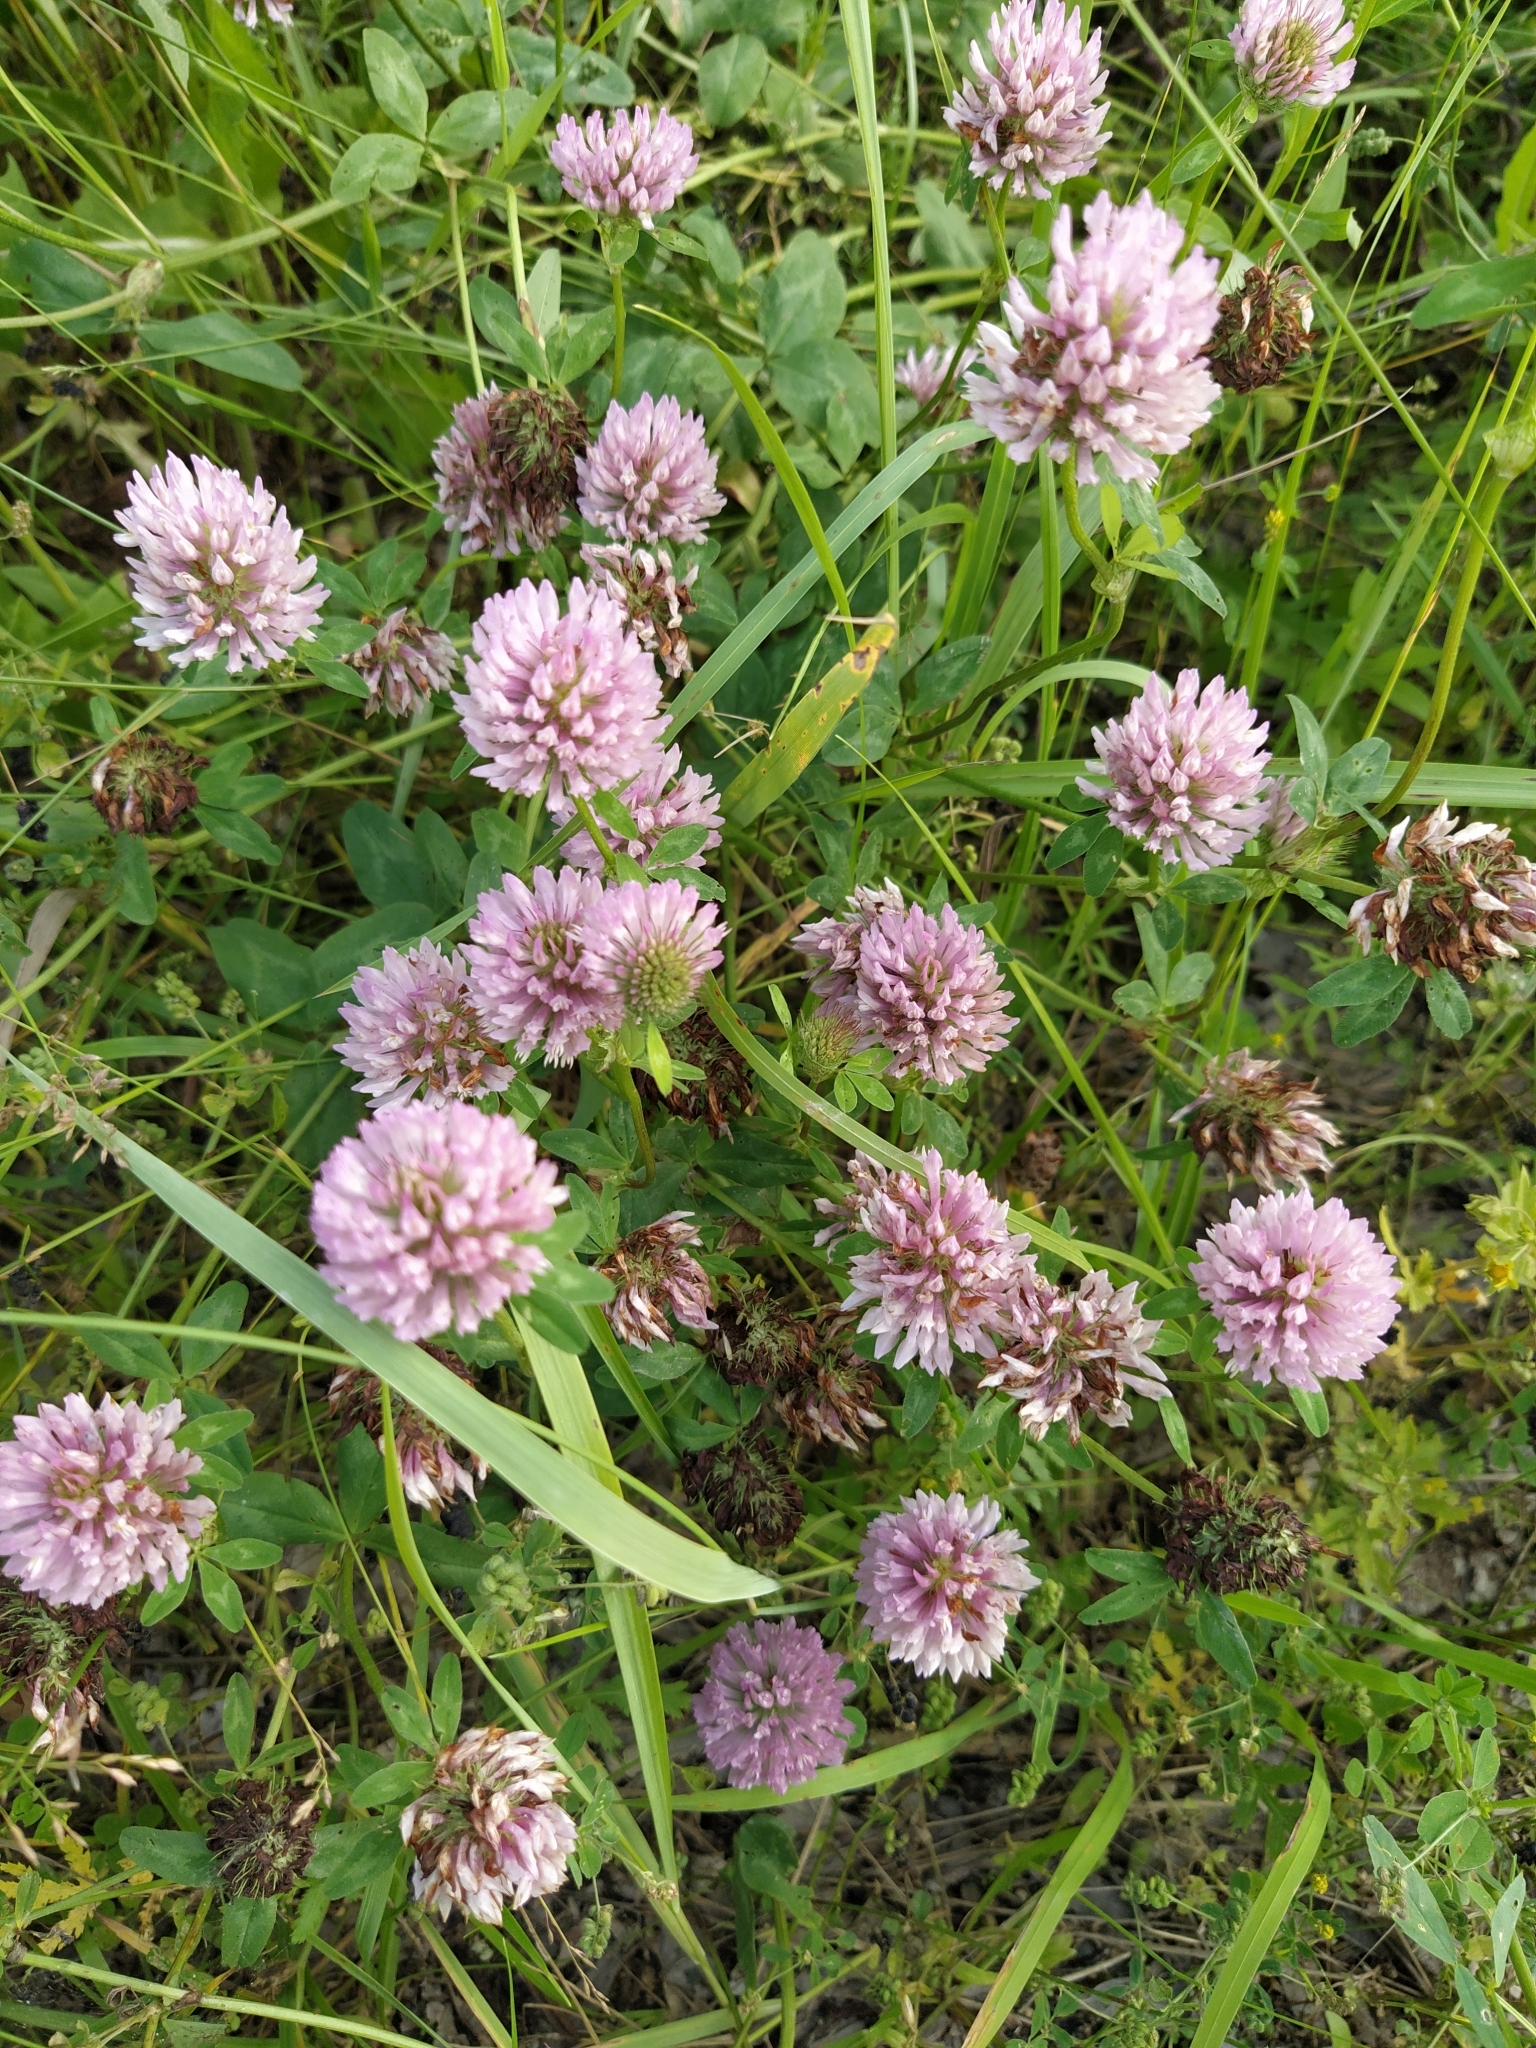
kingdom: Plantae
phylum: Tracheophyta
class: Magnoliopsida
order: Fabales
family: Fabaceae
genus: Trifolium
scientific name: Trifolium pratense
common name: Red clover
